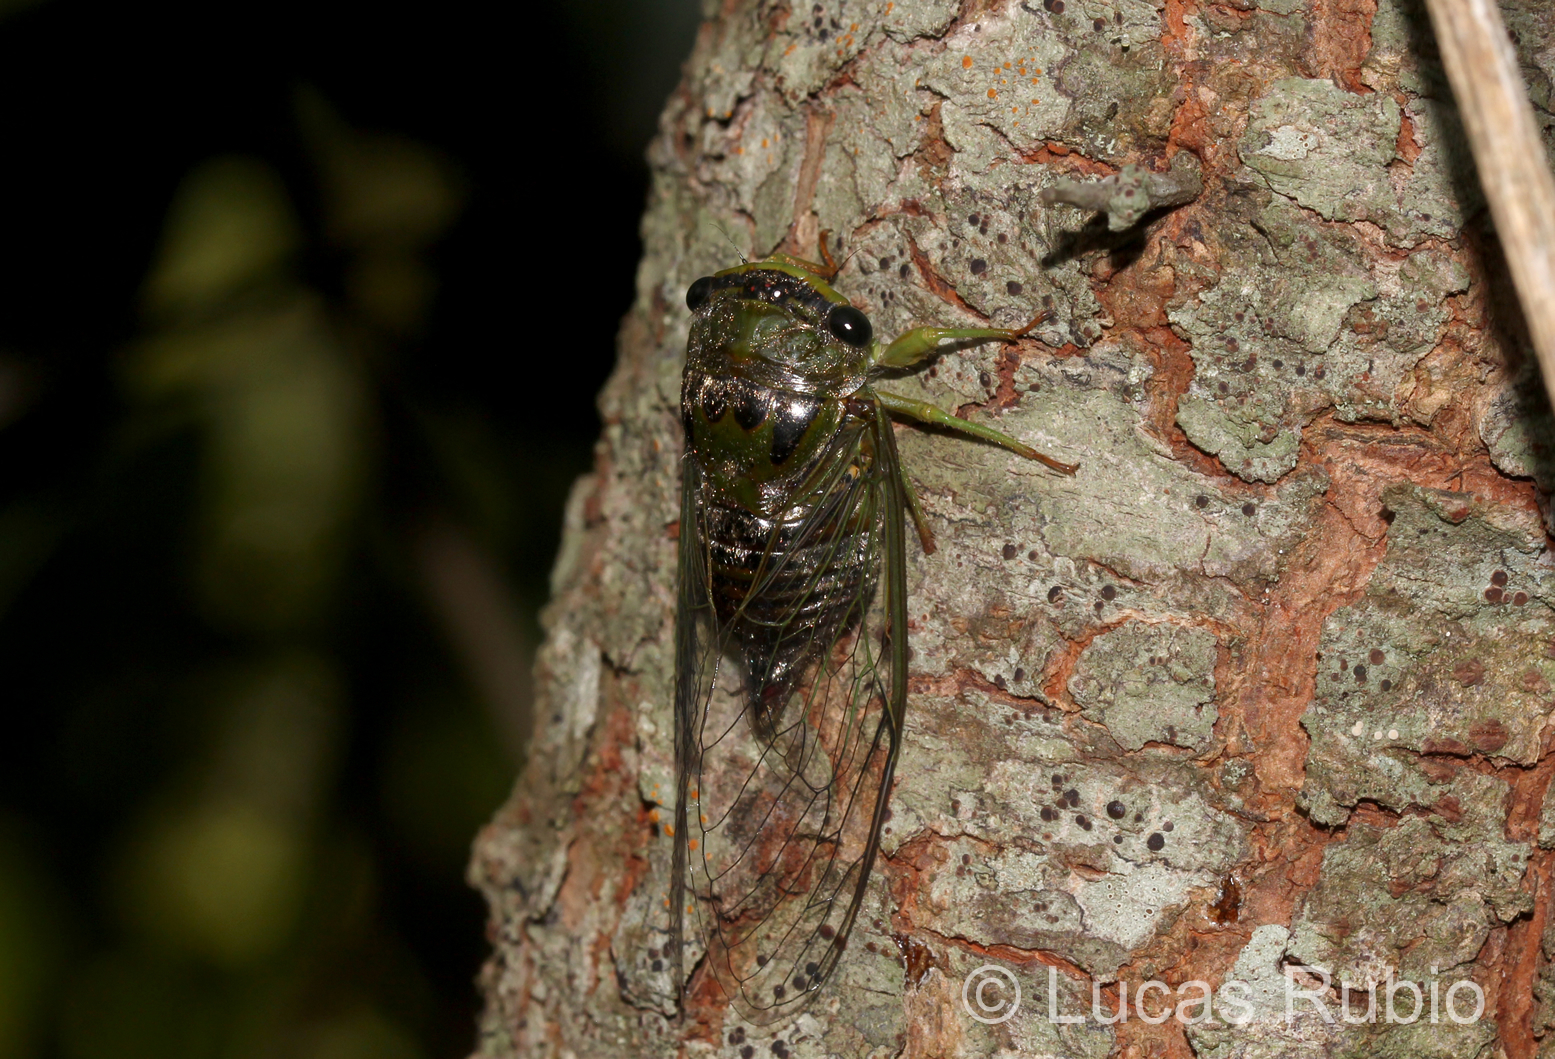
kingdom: Animalia
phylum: Arthropoda
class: Insecta
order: Hemiptera
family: Cicadidae
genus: Acanthoventris
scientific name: Acanthoventris drewseni
